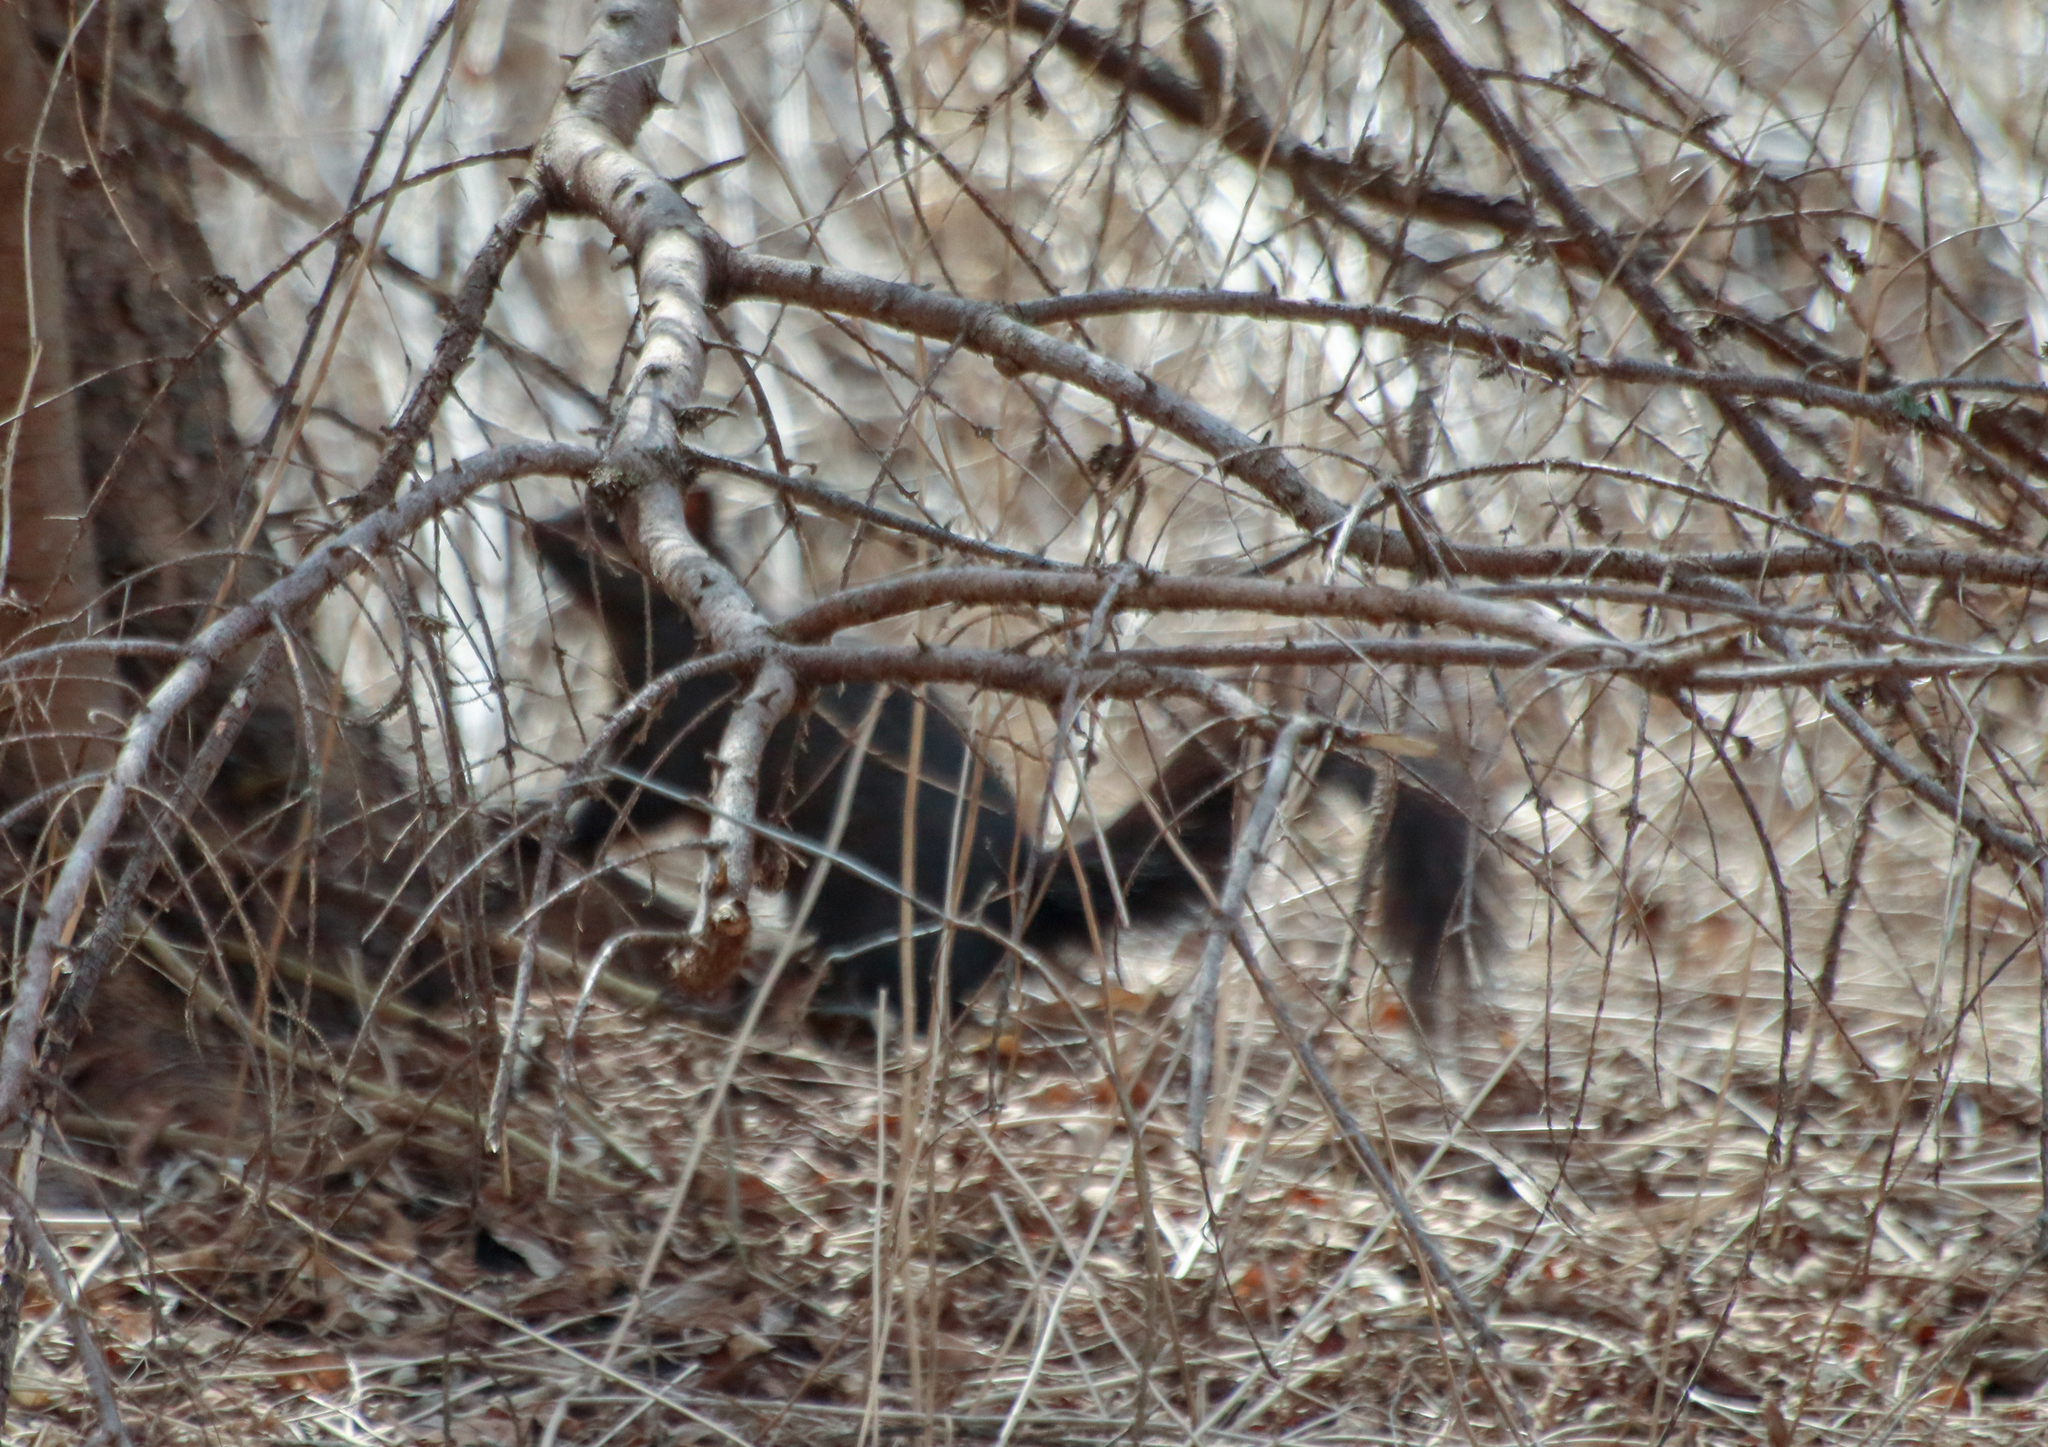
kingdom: Animalia
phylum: Chordata
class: Mammalia
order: Rodentia
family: Sciuridae
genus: Sciurus
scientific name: Sciurus carolinensis
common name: Eastern gray squirrel
